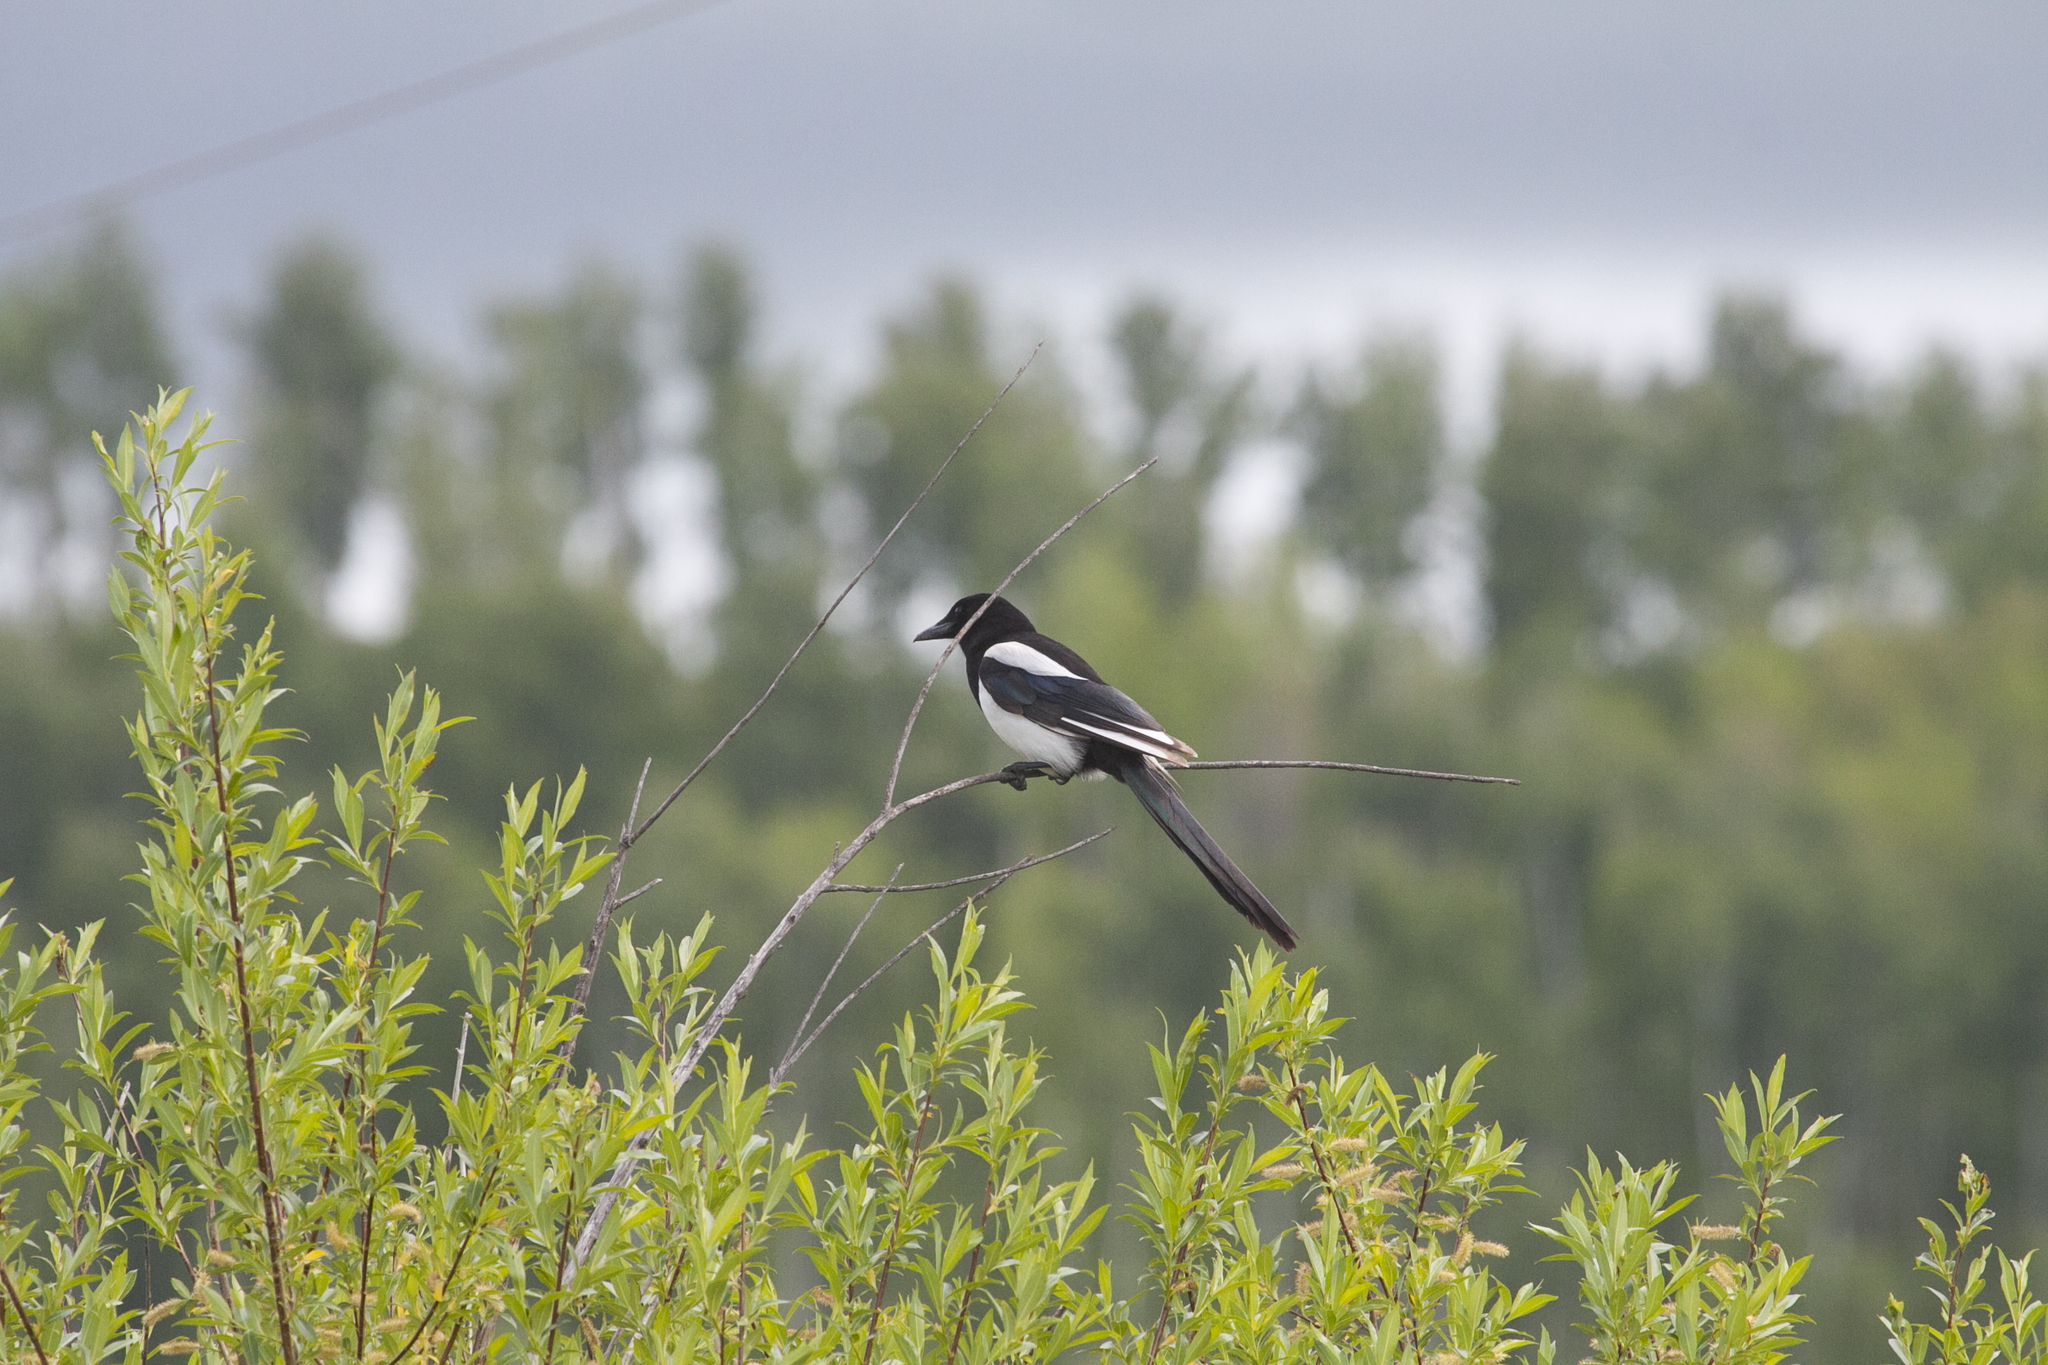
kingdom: Animalia
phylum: Chordata
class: Aves
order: Passeriformes
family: Corvidae
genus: Pica
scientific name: Pica pica
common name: Eurasian magpie
